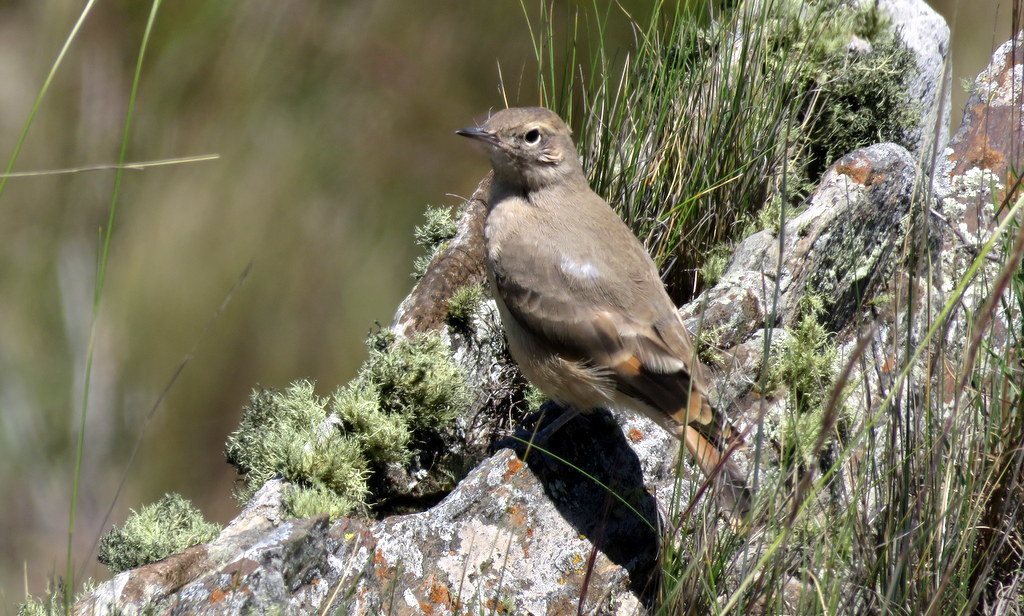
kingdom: Animalia
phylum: Chordata
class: Aves
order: Passeriformes
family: Furnariidae
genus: Geositta
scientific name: Geositta rufipennis
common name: Rufous-banded miner
